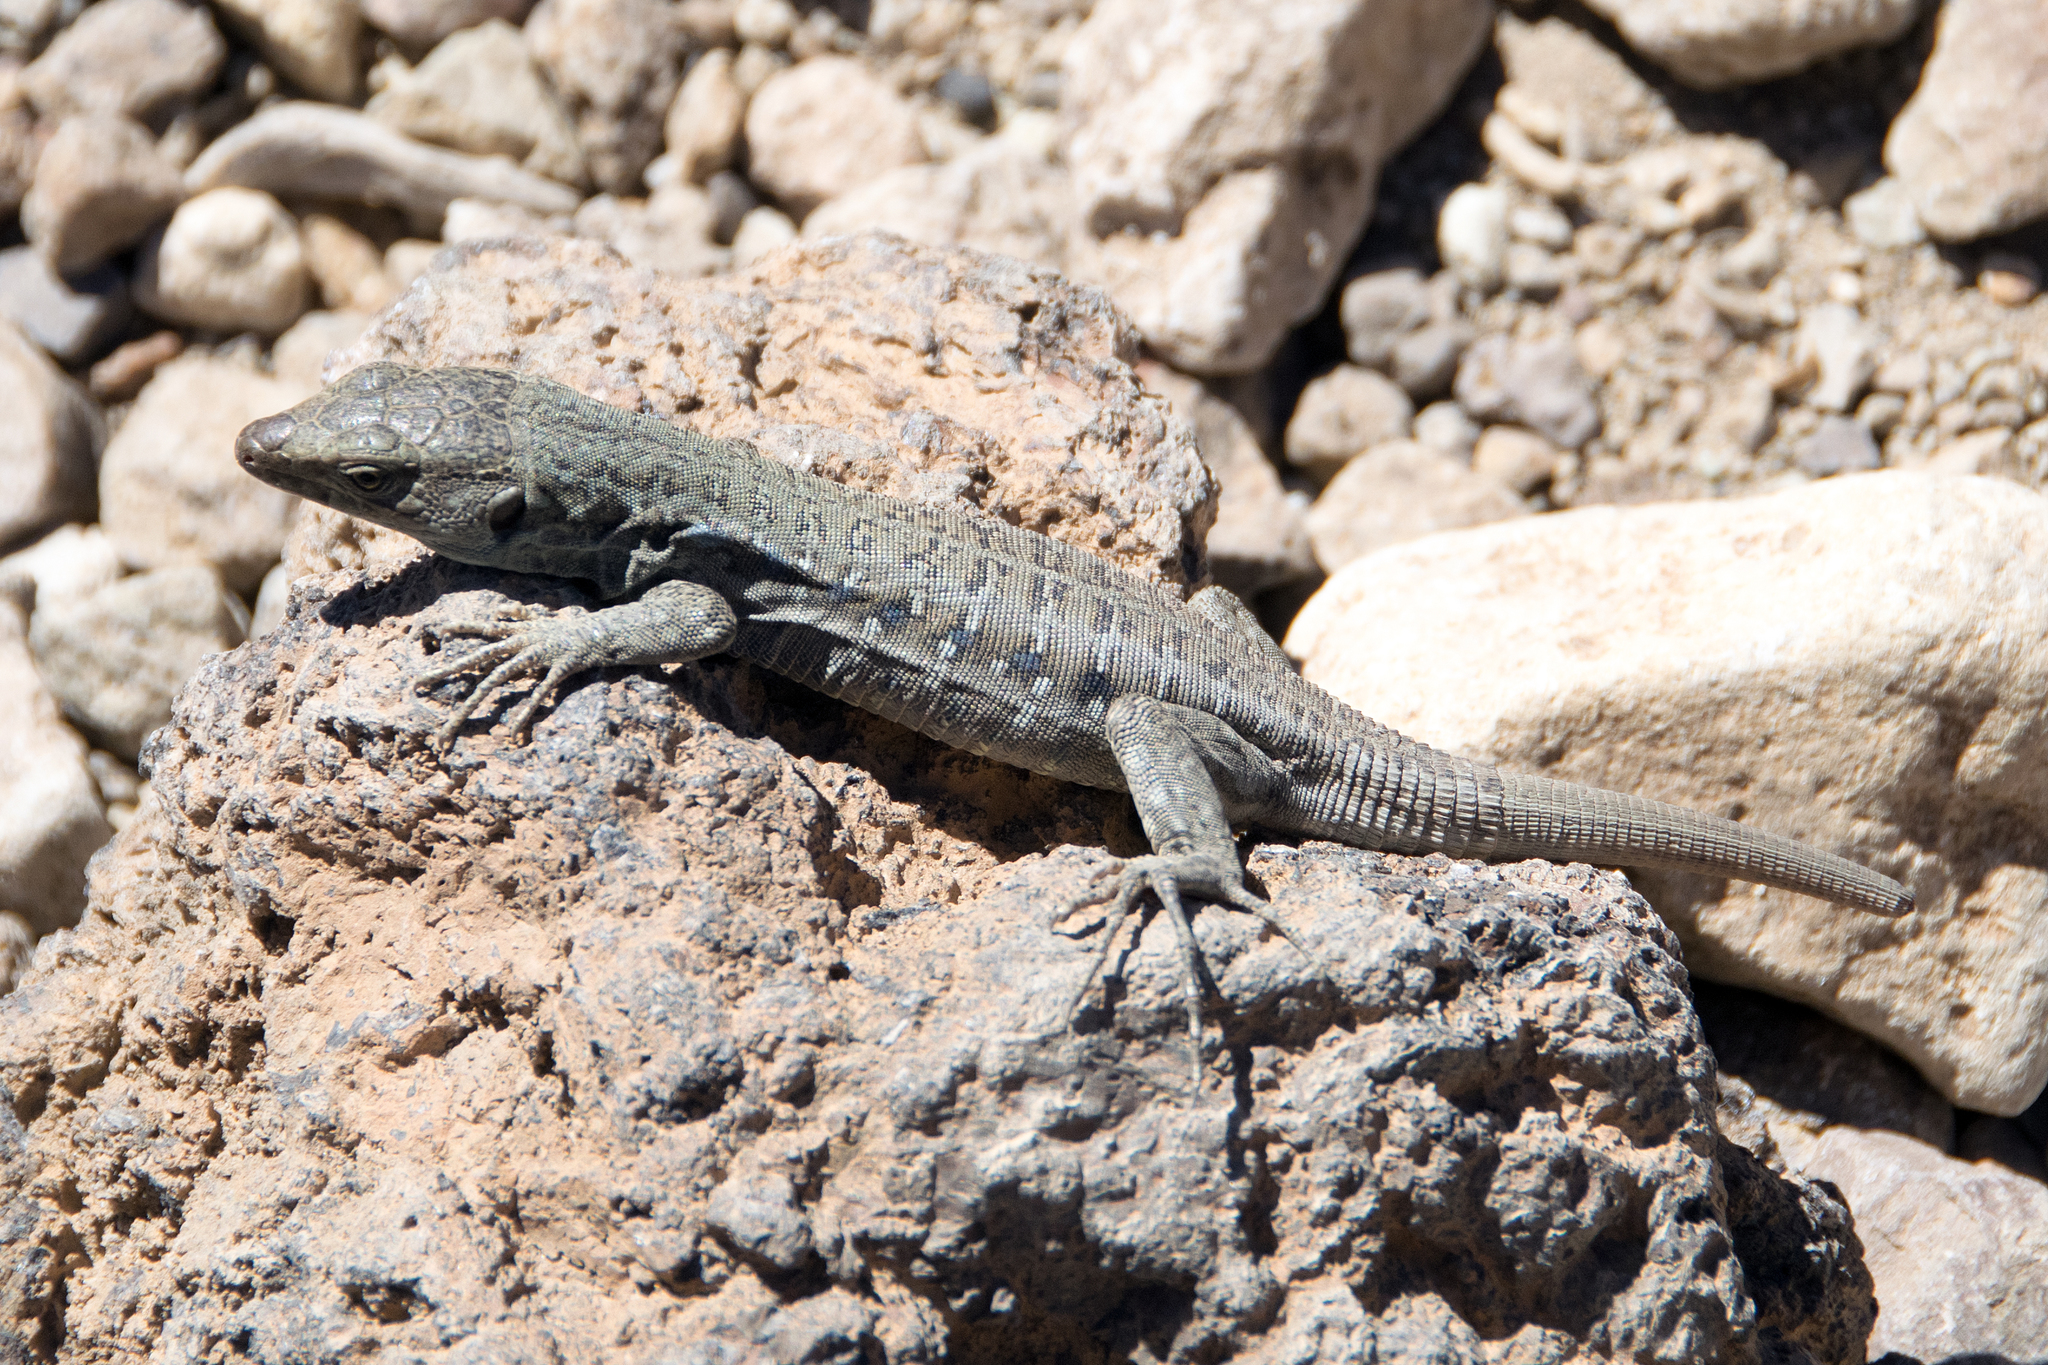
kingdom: Animalia
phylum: Chordata
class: Squamata
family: Lacertidae
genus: Gallotia
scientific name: Gallotia galloti
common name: Gallot's lizard
